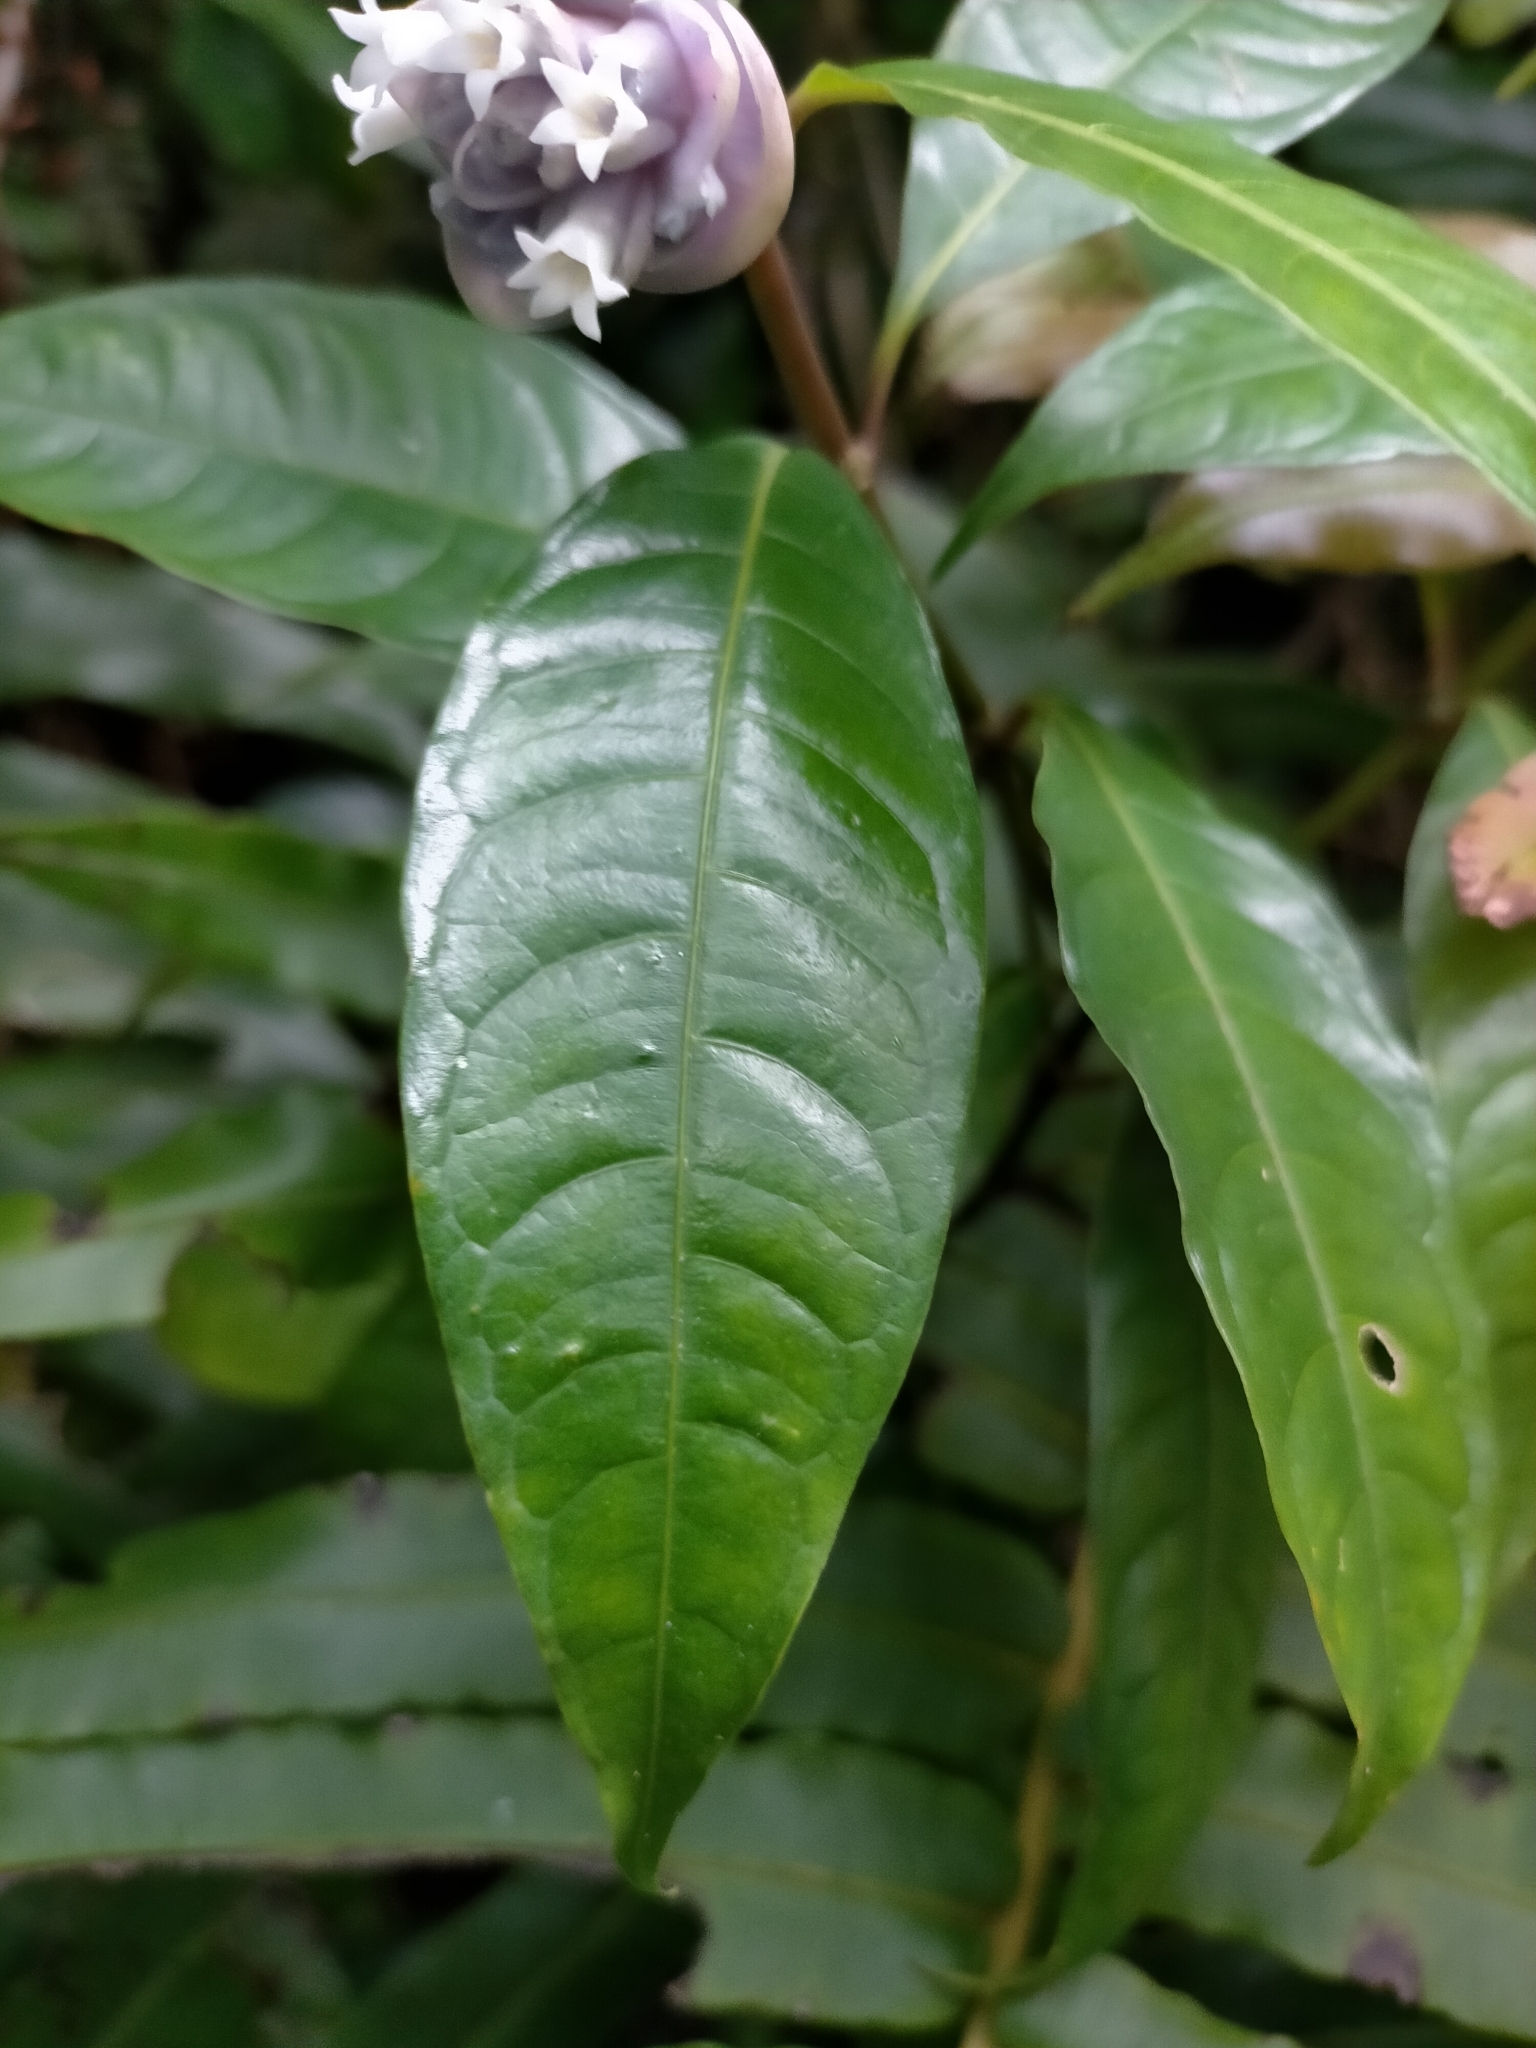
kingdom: Plantae
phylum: Tracheophyta
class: Magnoliopsida
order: Gentianales
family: Rubiaceae
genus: Psychotria
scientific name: Psychotria urbaniana
